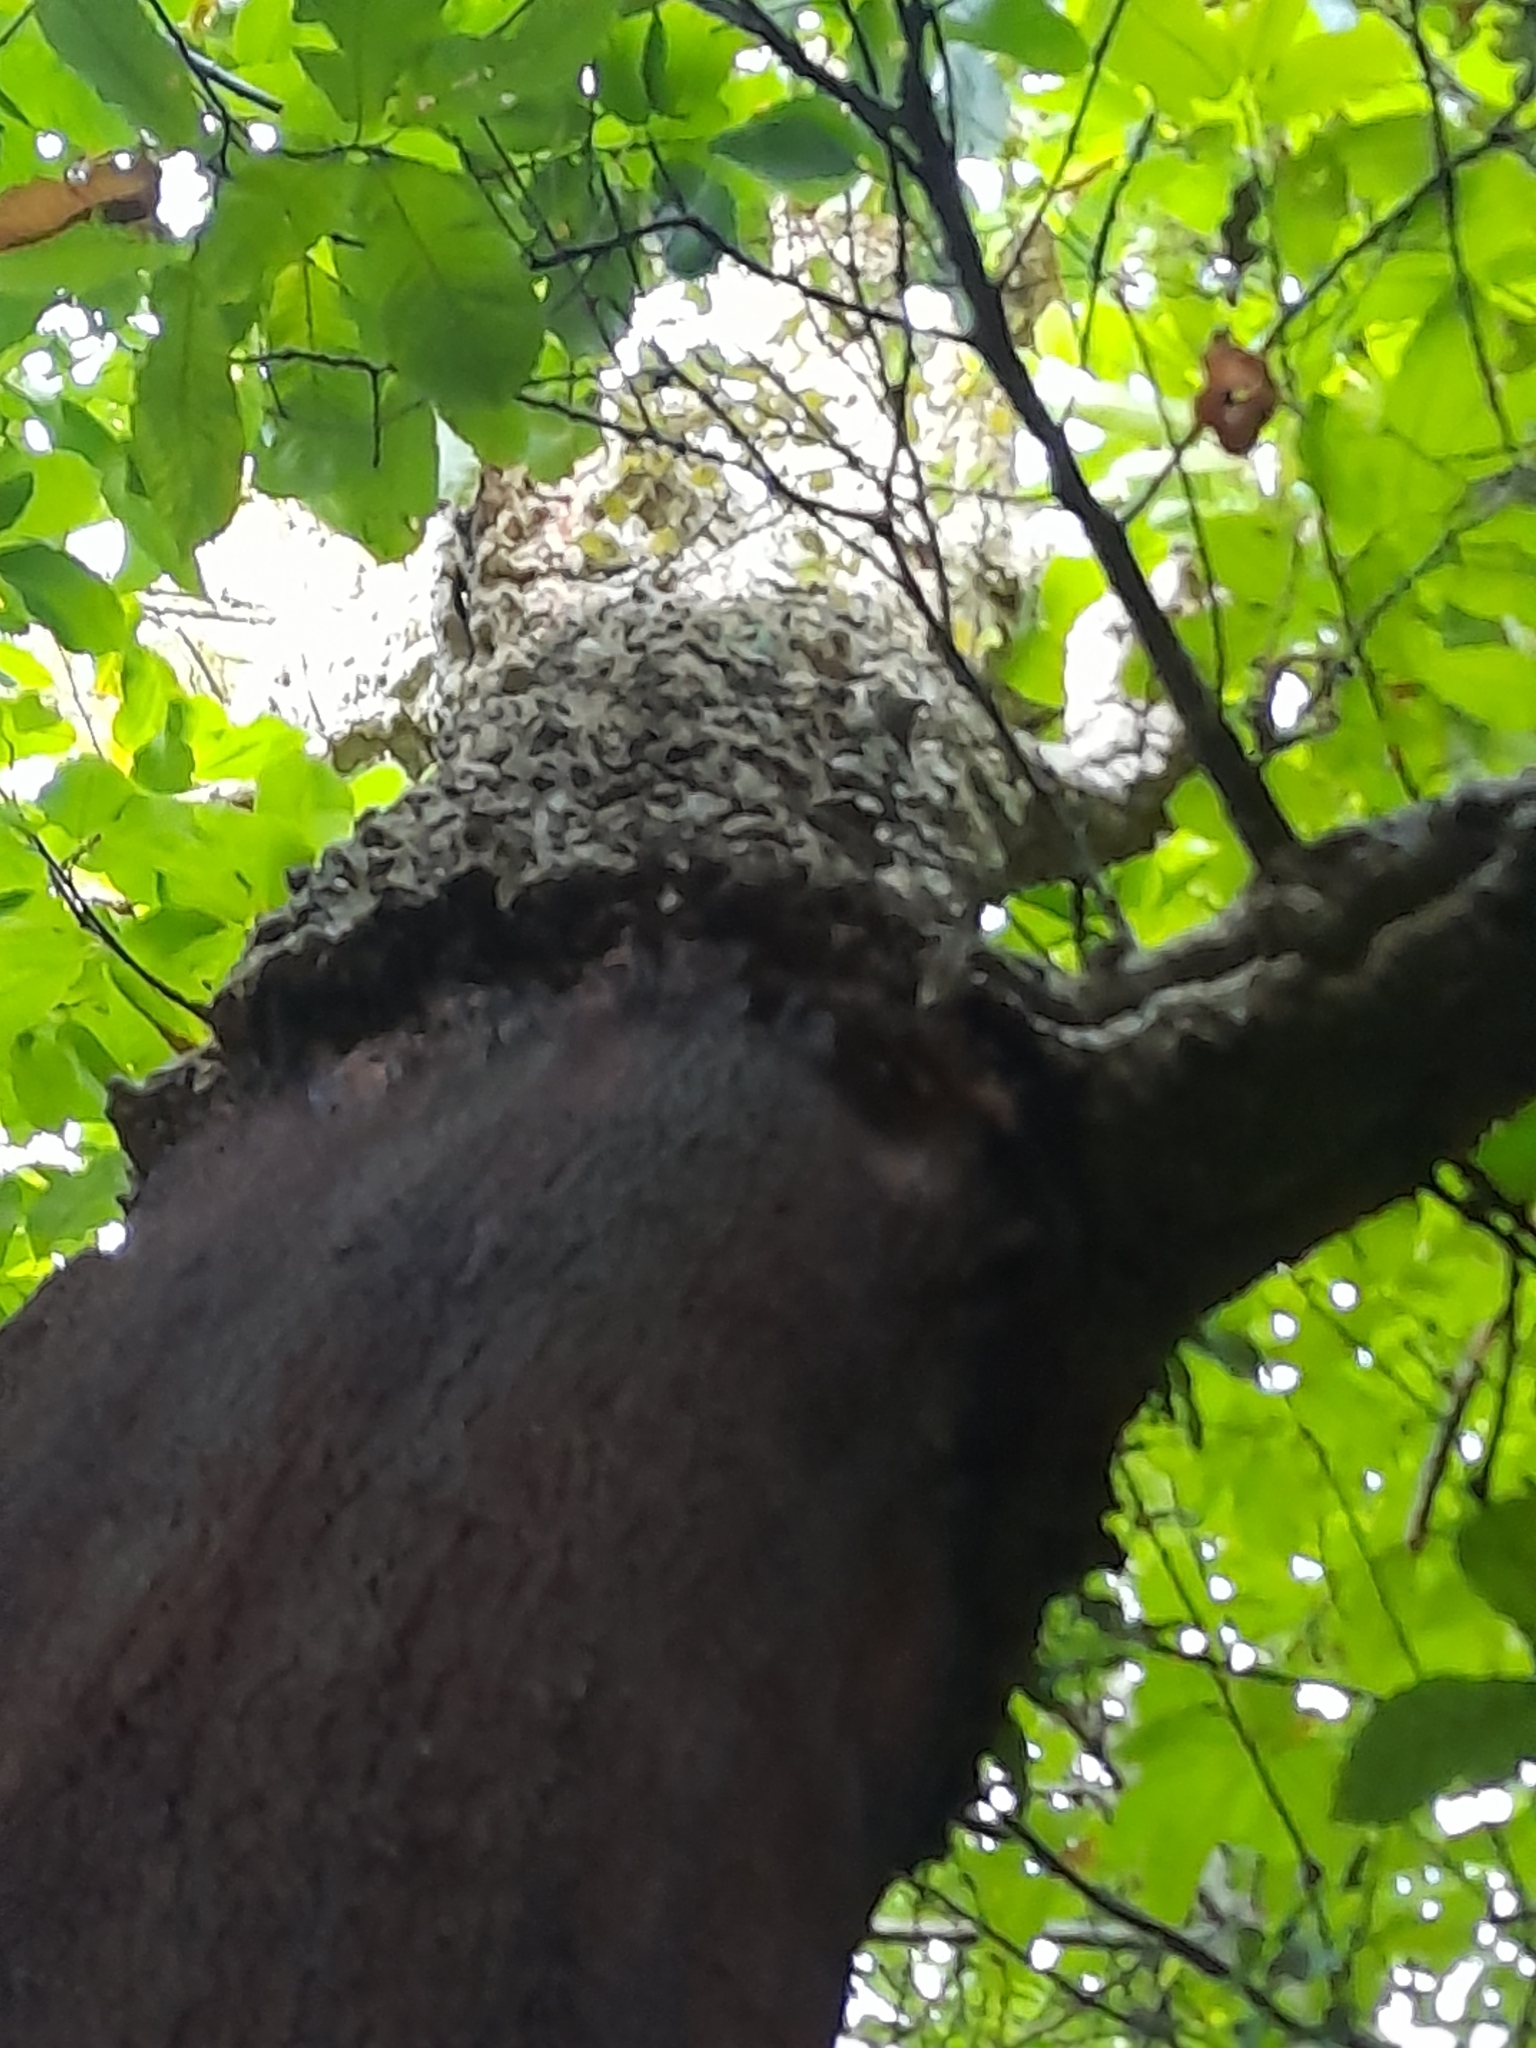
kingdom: Plantae
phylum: Tracheophyta
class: Magnoliopsida
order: Fagales
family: Fagaceae
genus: Quercus
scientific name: Quercus suber
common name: Cork oak
